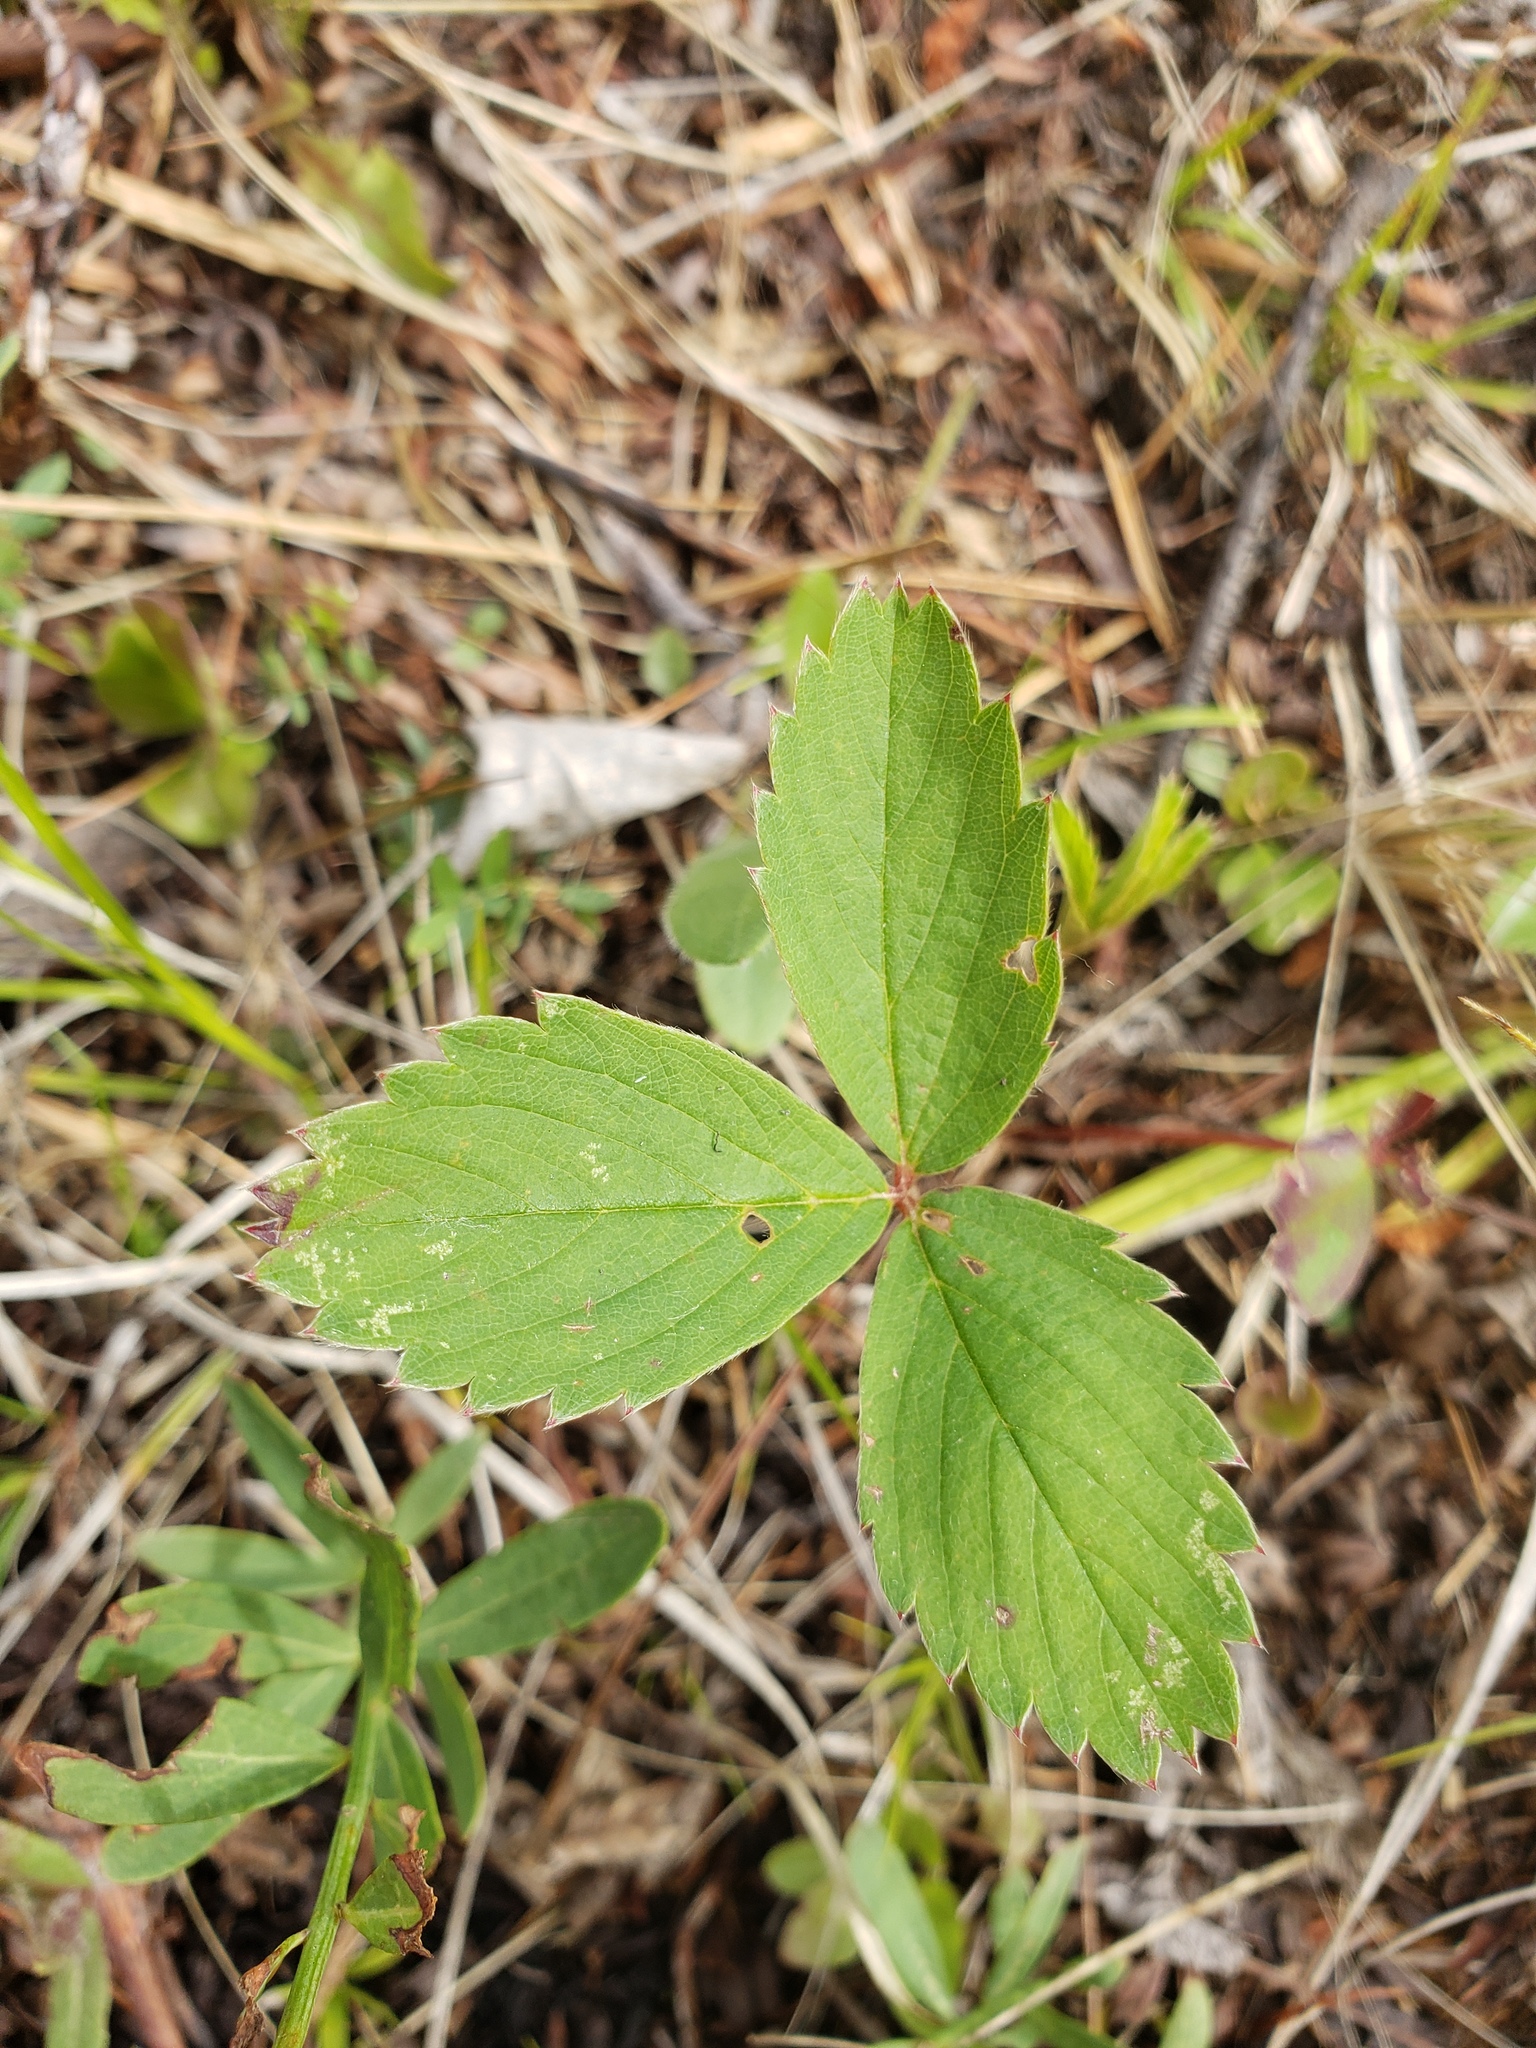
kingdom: Plantae
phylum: Tracheophyta
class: Magnoliopsida
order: Rosales
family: Rosaceae
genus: Fragaria
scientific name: Fragaria virginiana
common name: Thickleaved wild strawberry
